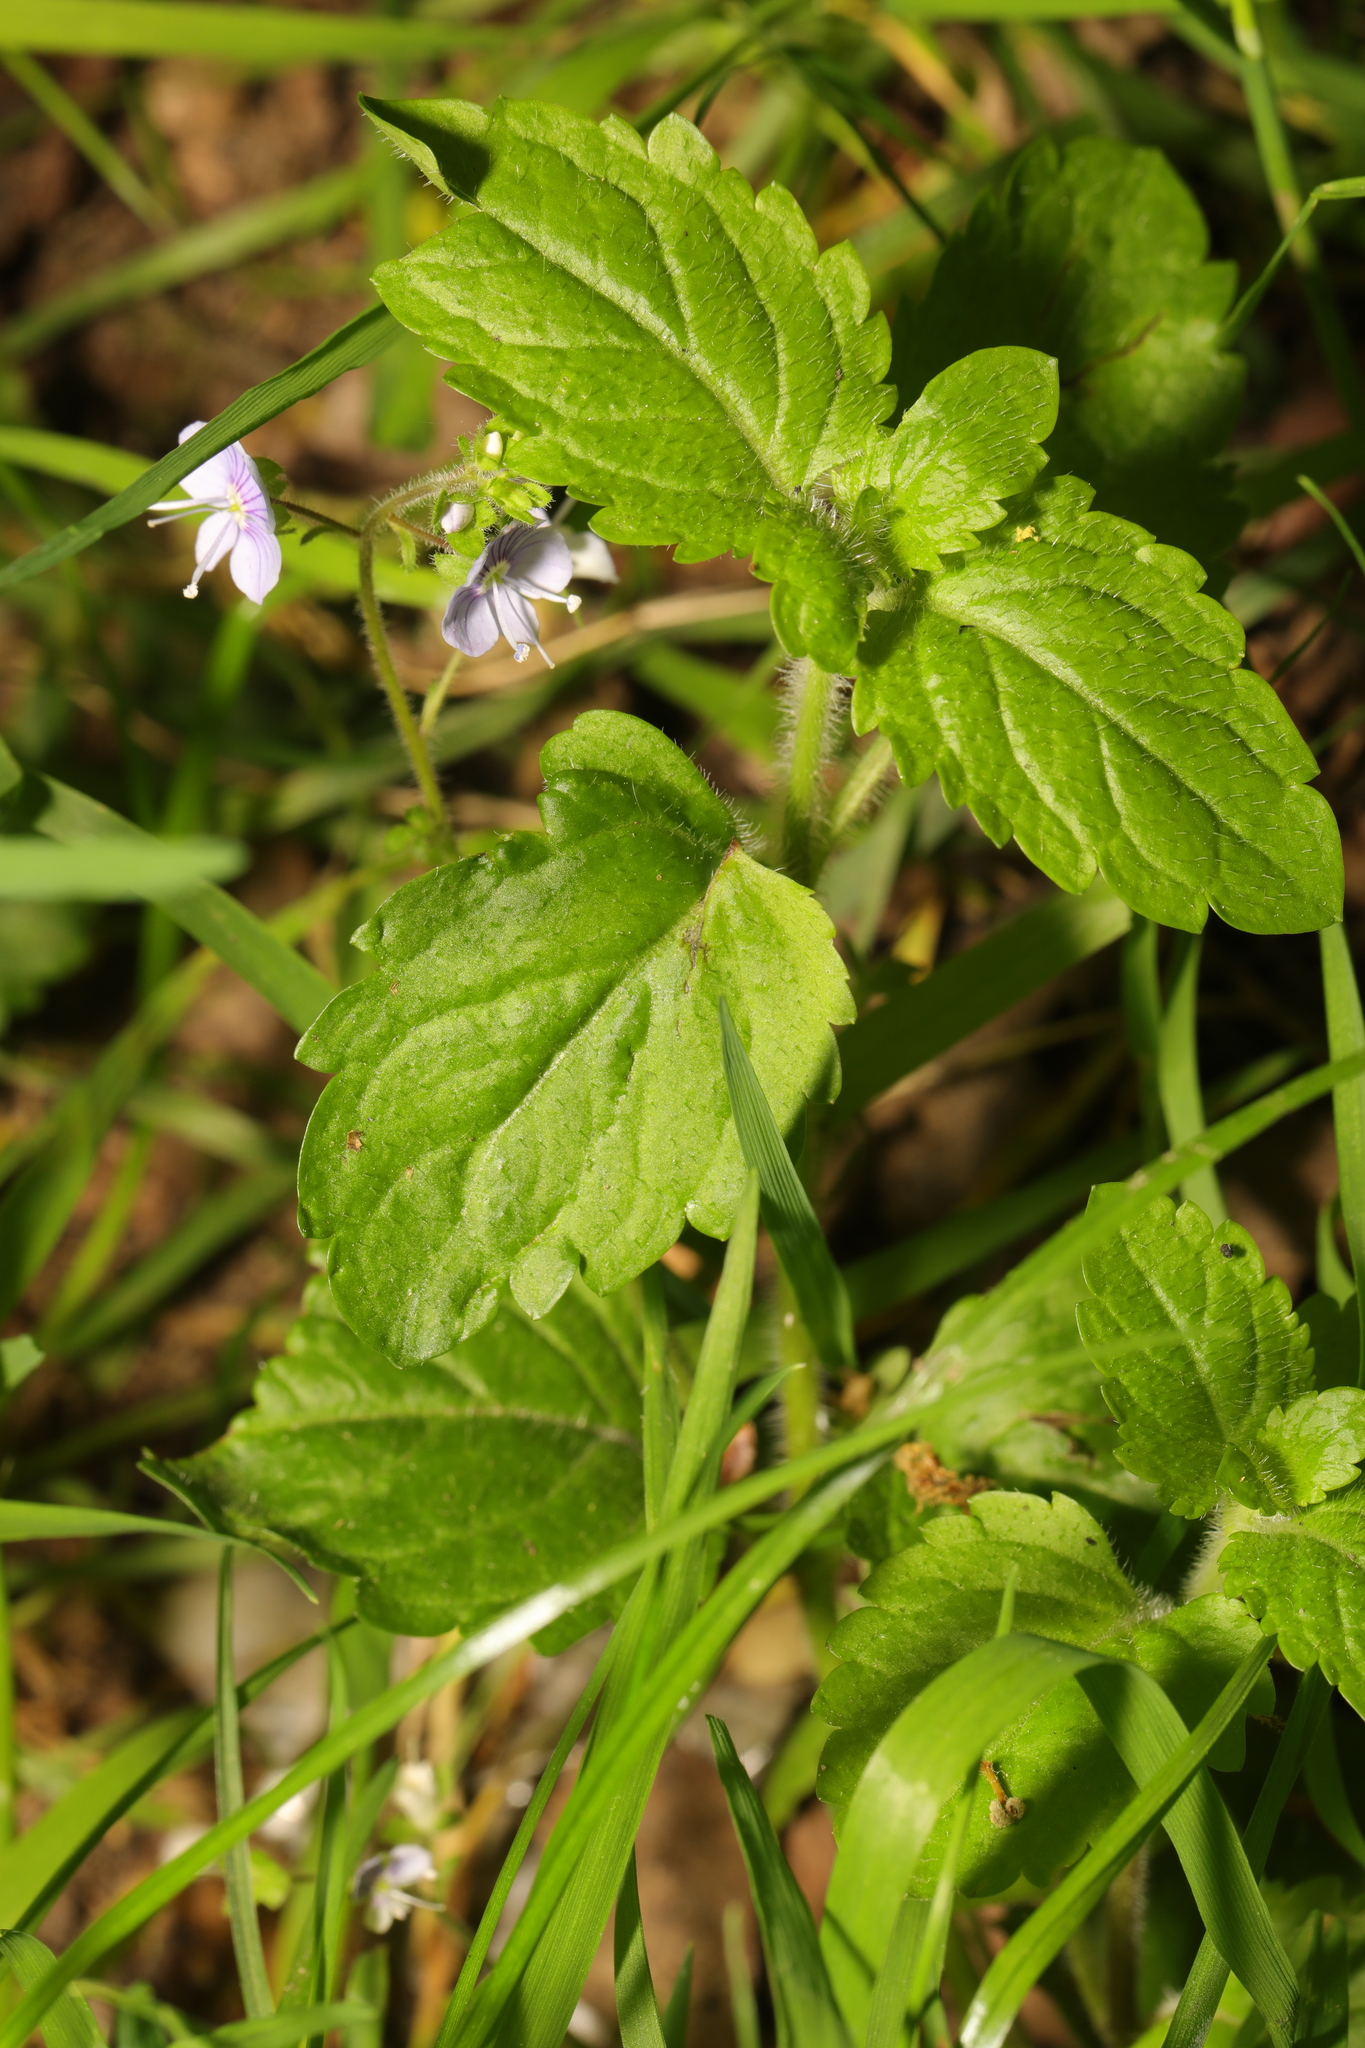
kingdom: Plantae
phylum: Tracheophyta
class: Magnoliopsida
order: Lamiales
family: Plantaginaceae
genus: Veronica
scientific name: Veronica montana
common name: Wood speedwell
